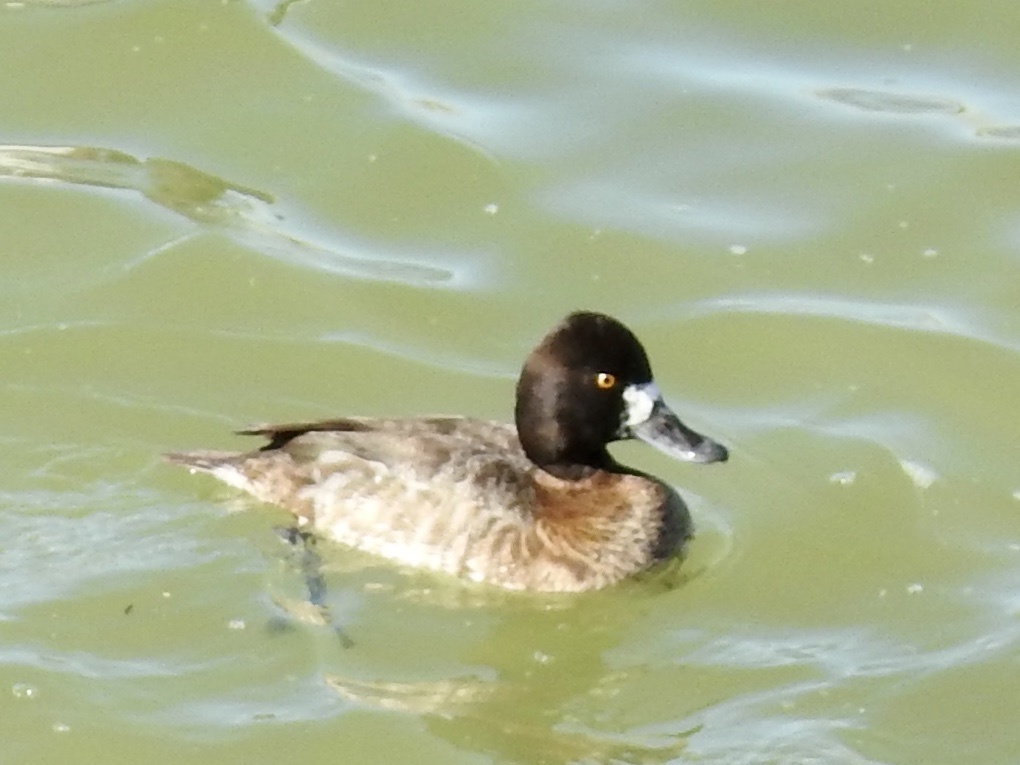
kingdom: Animalia
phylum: Chordata
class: Aves
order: Anseriformes
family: Anatidae
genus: Aythya
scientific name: Aythya affinis
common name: Lesser scaup
